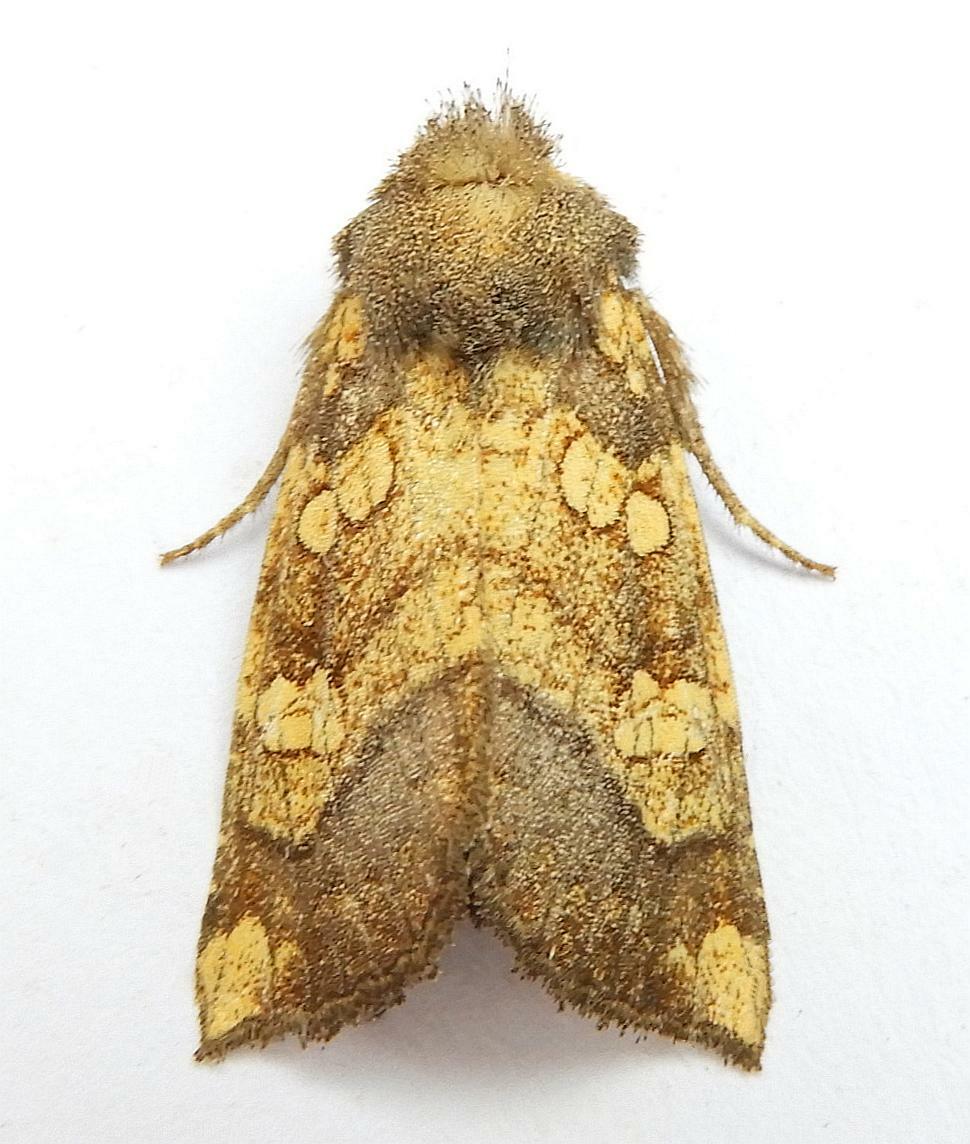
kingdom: Animalia
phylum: Arthropoda
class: Insecta
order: Lepidoptera
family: Noctuidae
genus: Papaipema
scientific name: Papaipema cataphracta
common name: Burdock borer
